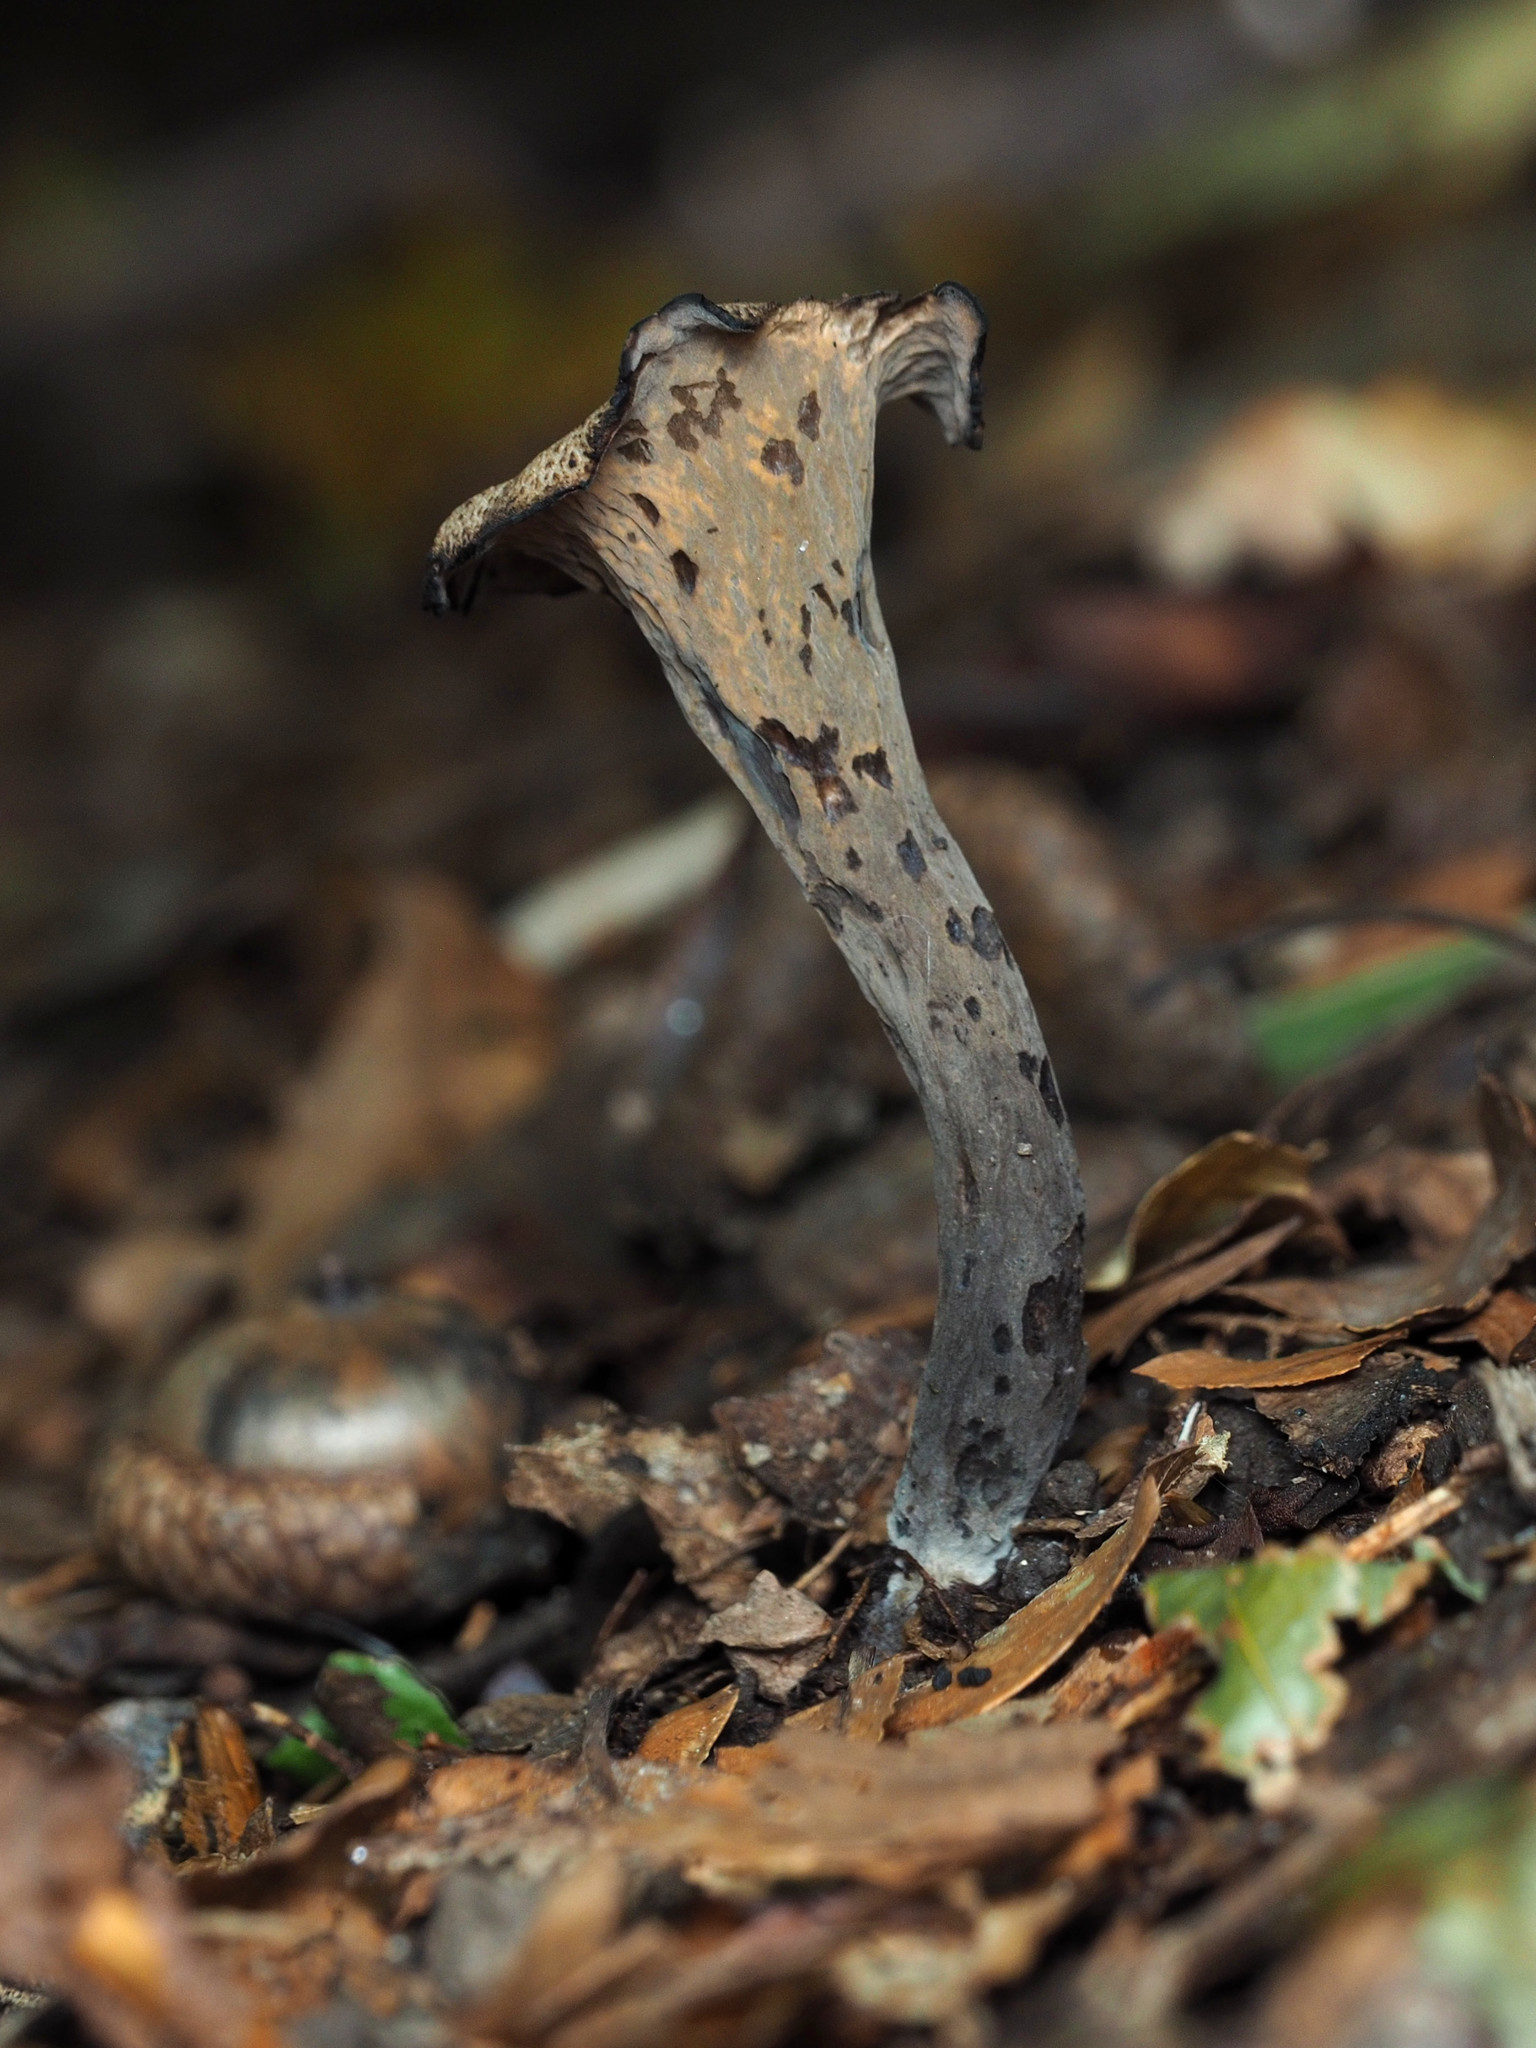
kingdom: Fungi
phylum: Basidiomycota
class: Agaricomycetes
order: Cantharellales
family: Hydnaceae
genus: Craterellus
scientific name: Craterellus cornucopioides
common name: Horn of plenty
